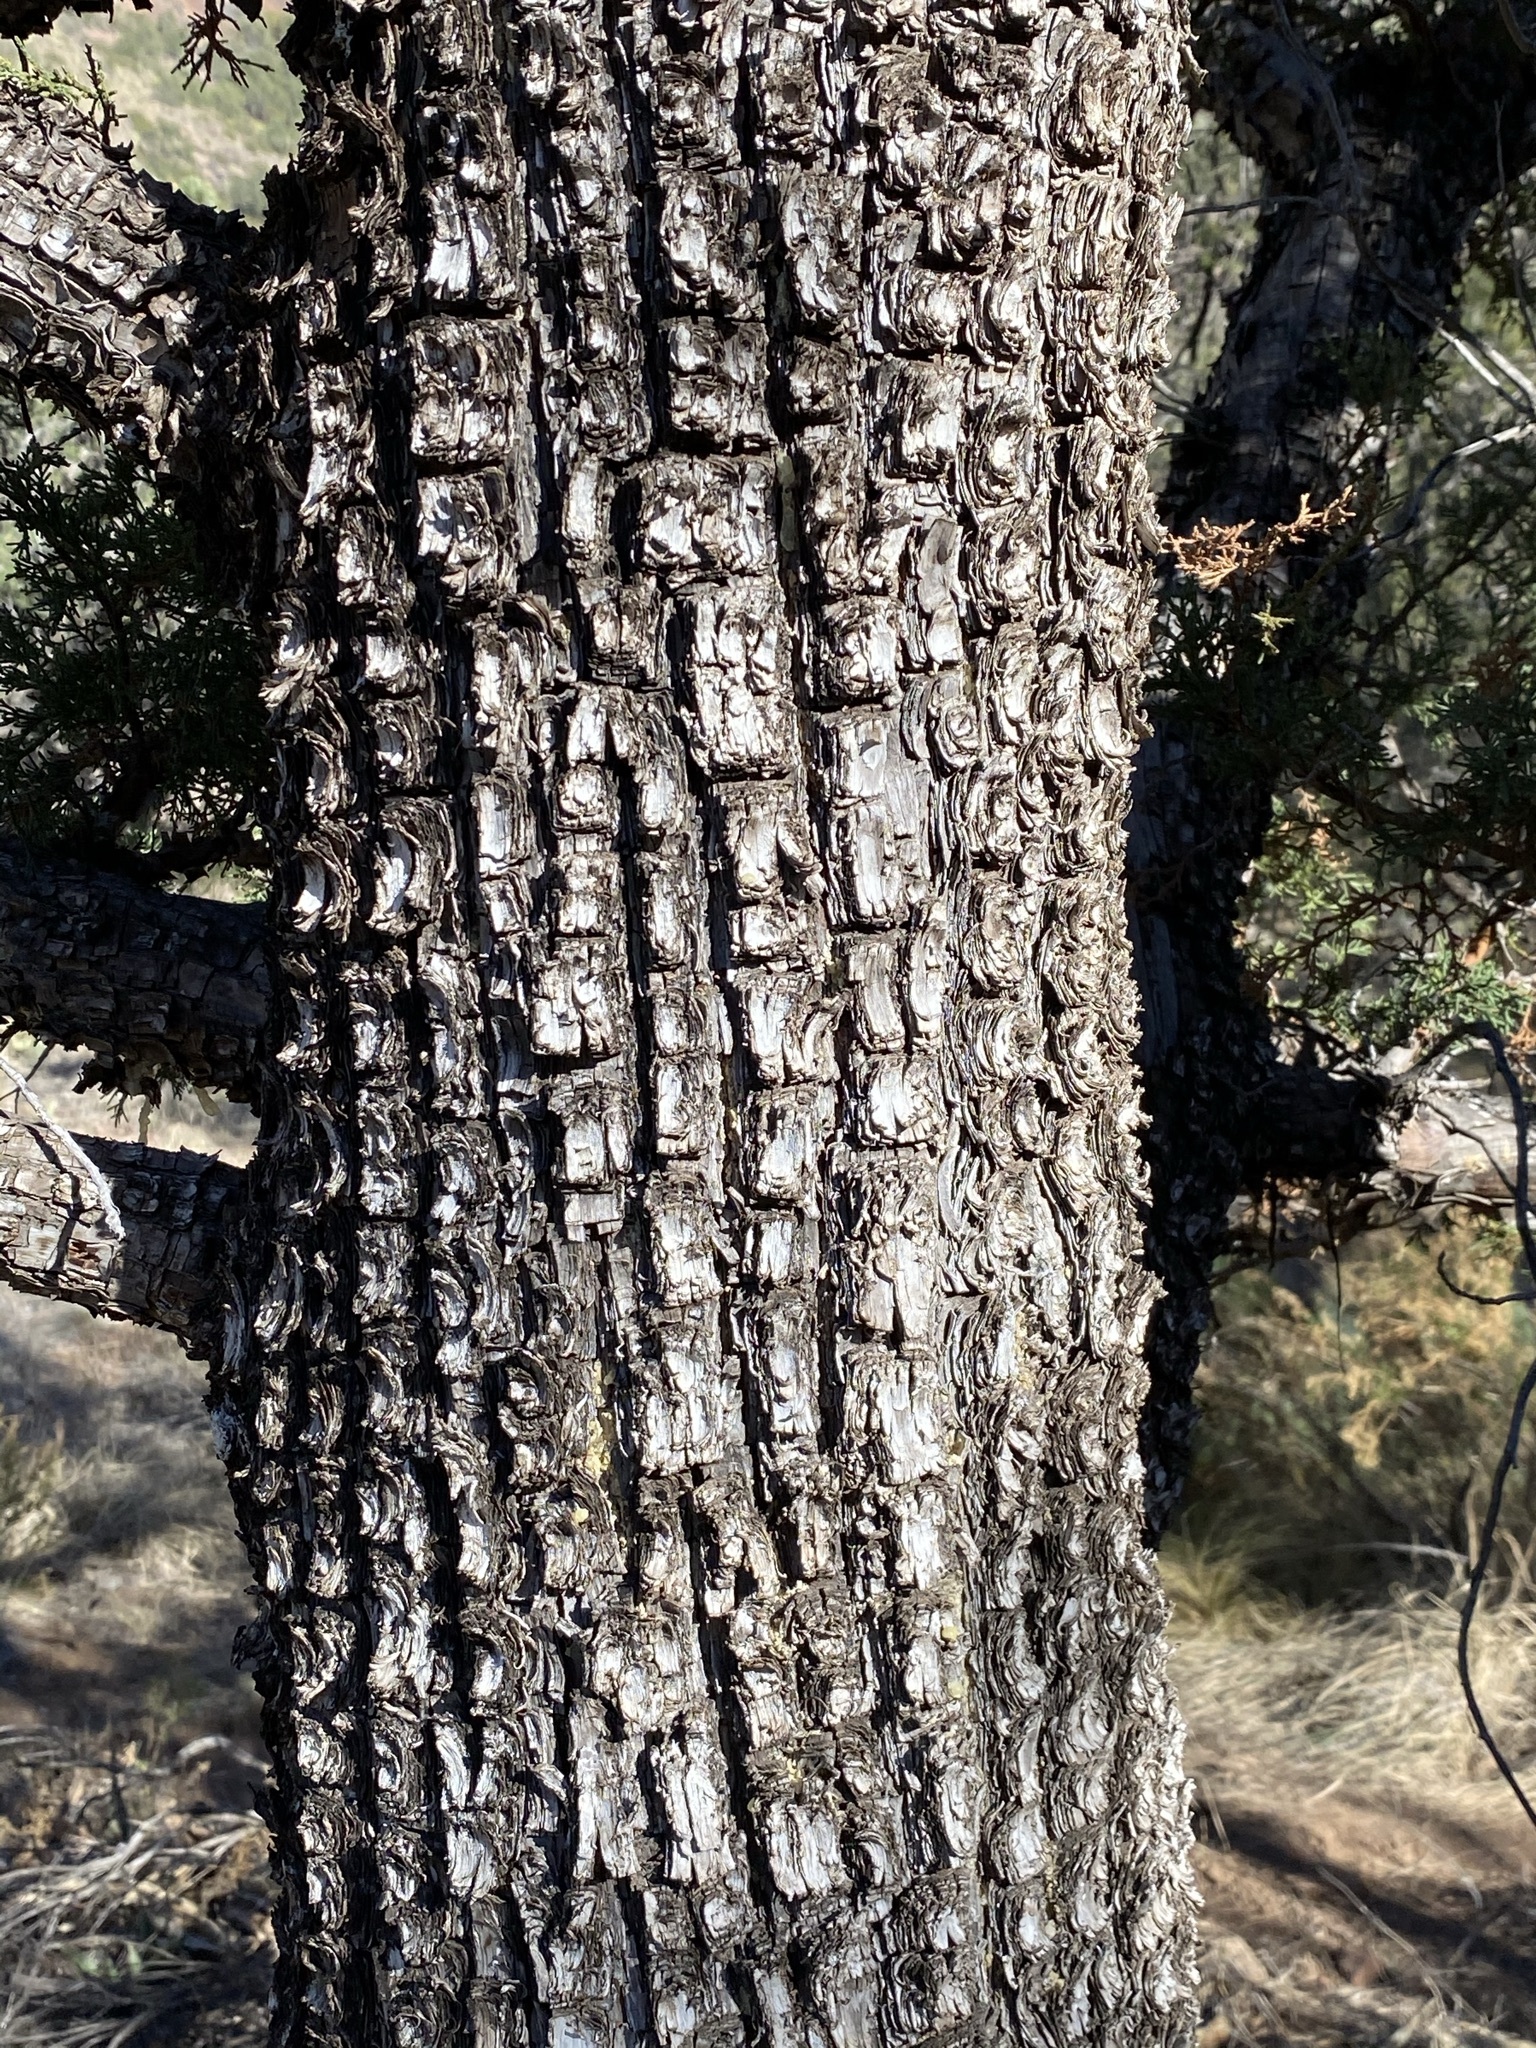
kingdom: Plantae
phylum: Tracheophyta
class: Pinopsida
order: Pinales
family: Cupressaceae
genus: Juniperus
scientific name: Juniperus deppeana
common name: Alligator juniper
